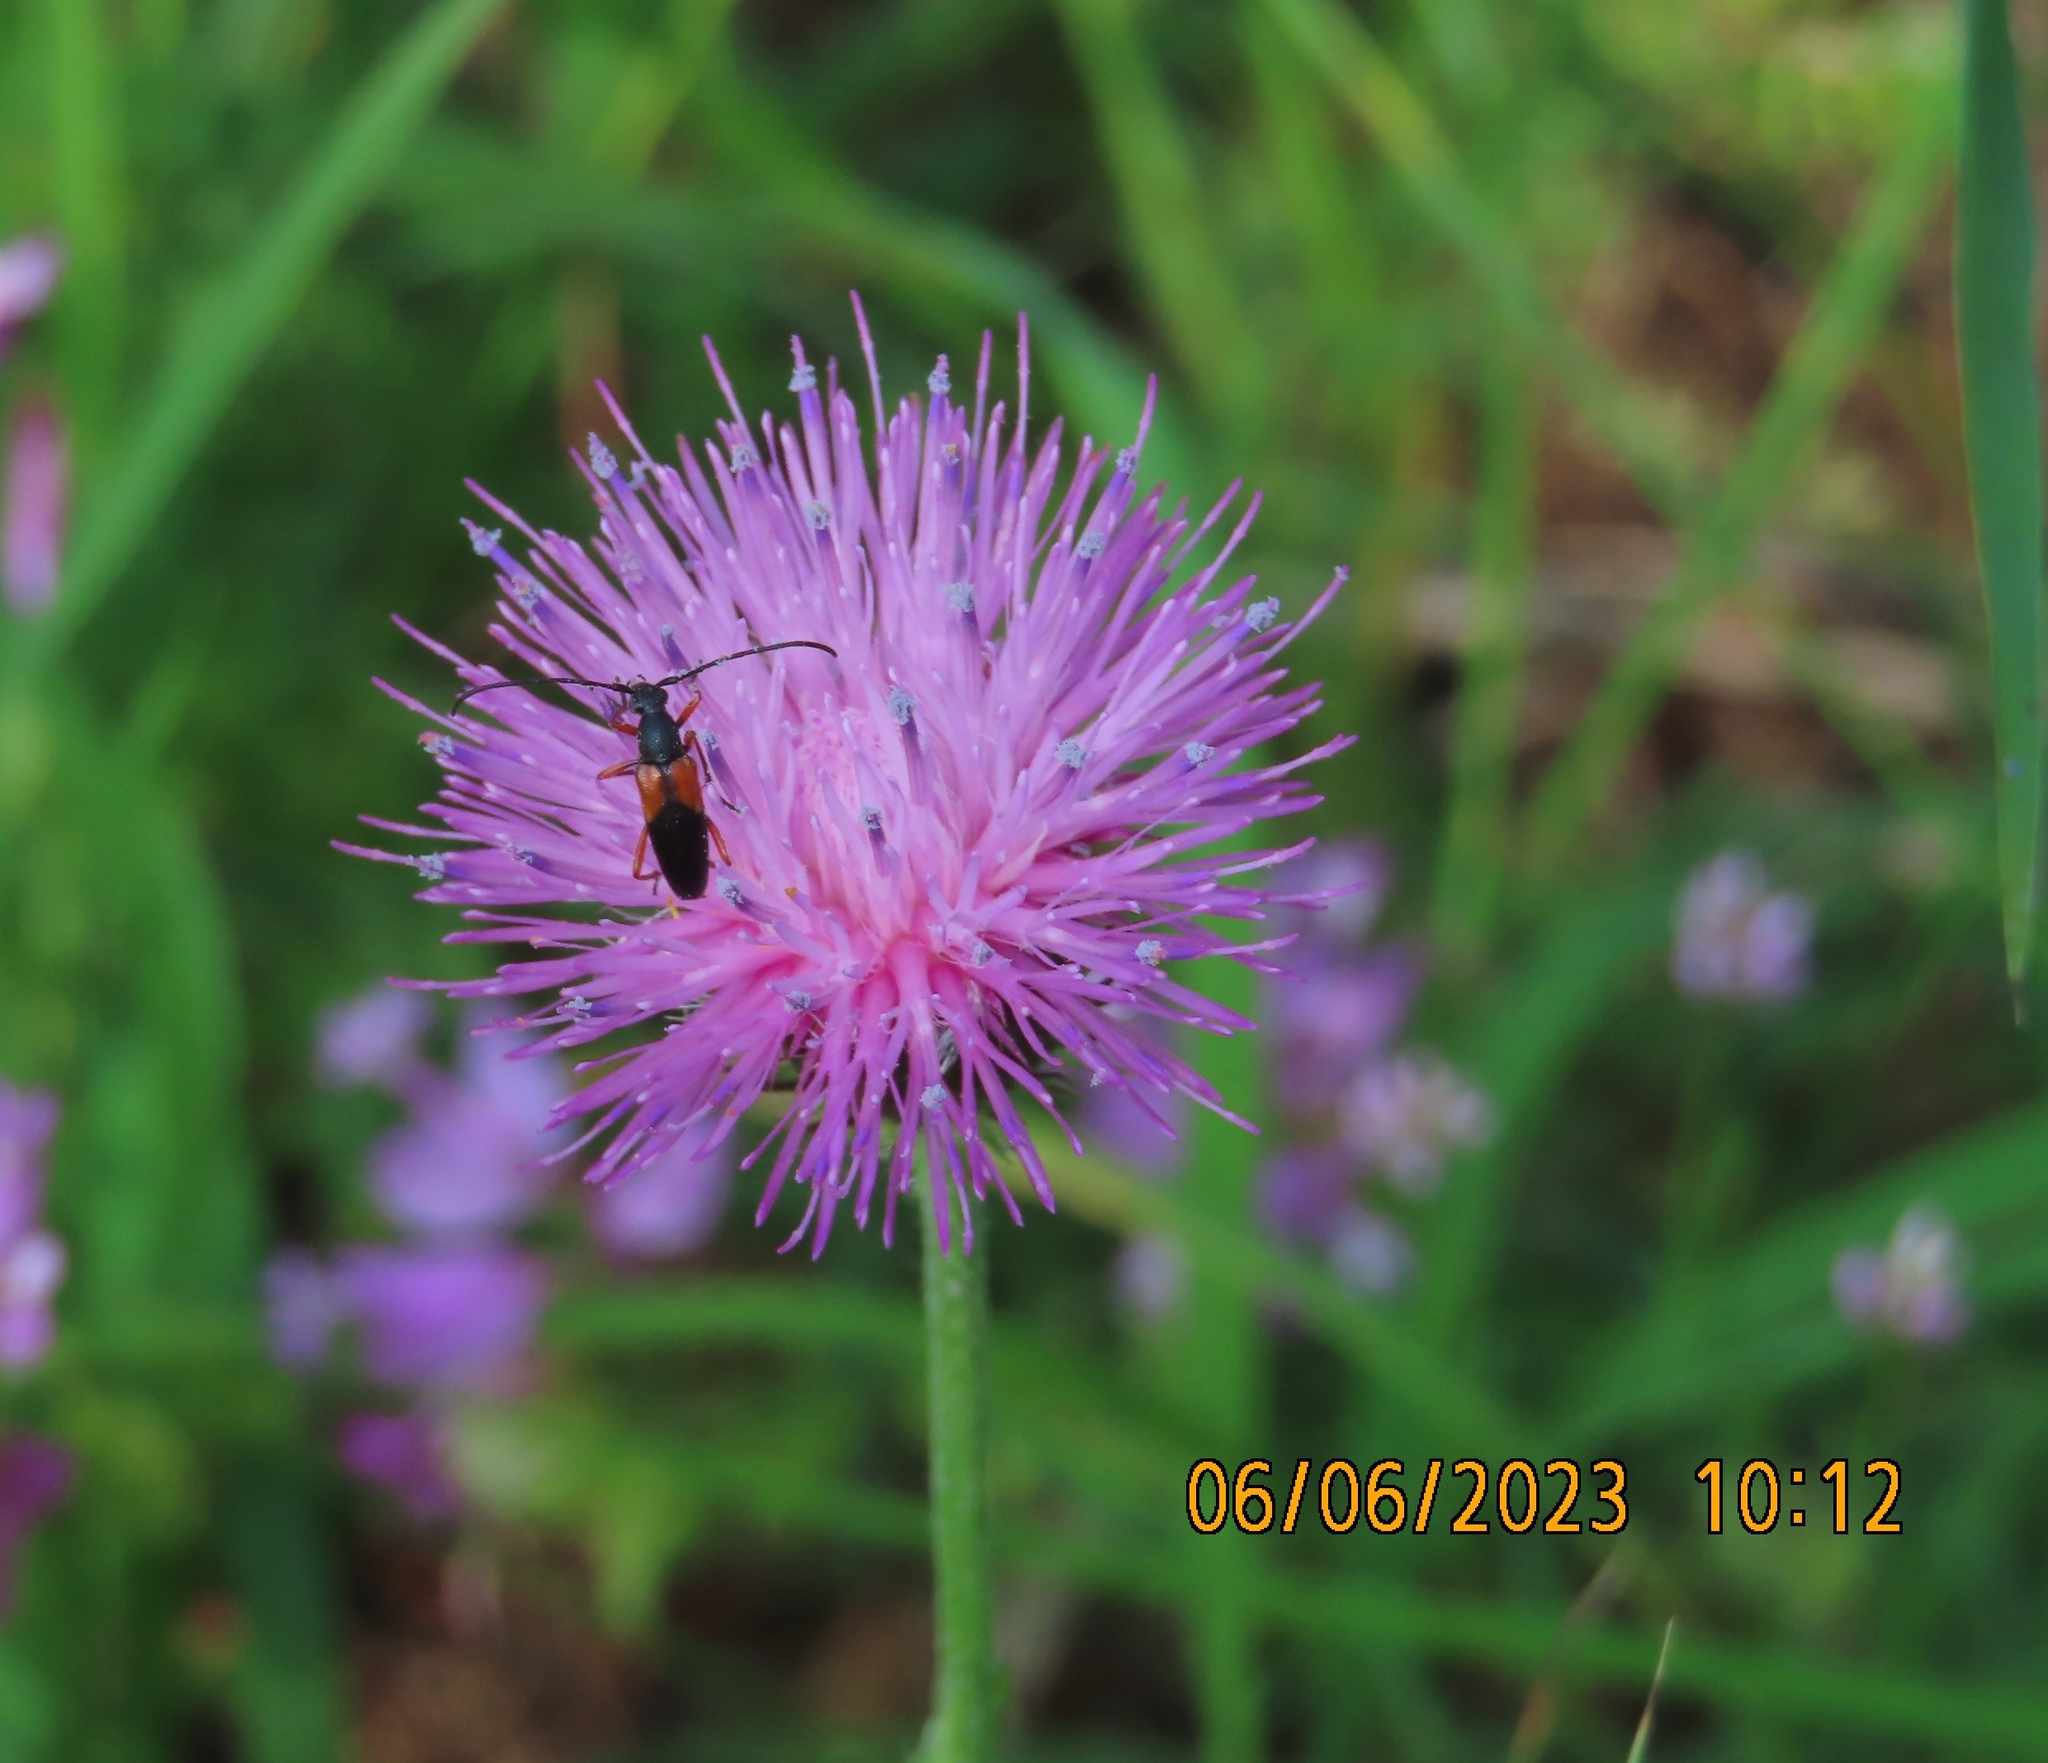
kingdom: Animalia
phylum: Arthropoda
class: Insecta
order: Coleoptera
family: Cerambycidae
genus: Stenurella
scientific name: Stenurella jaegeri
